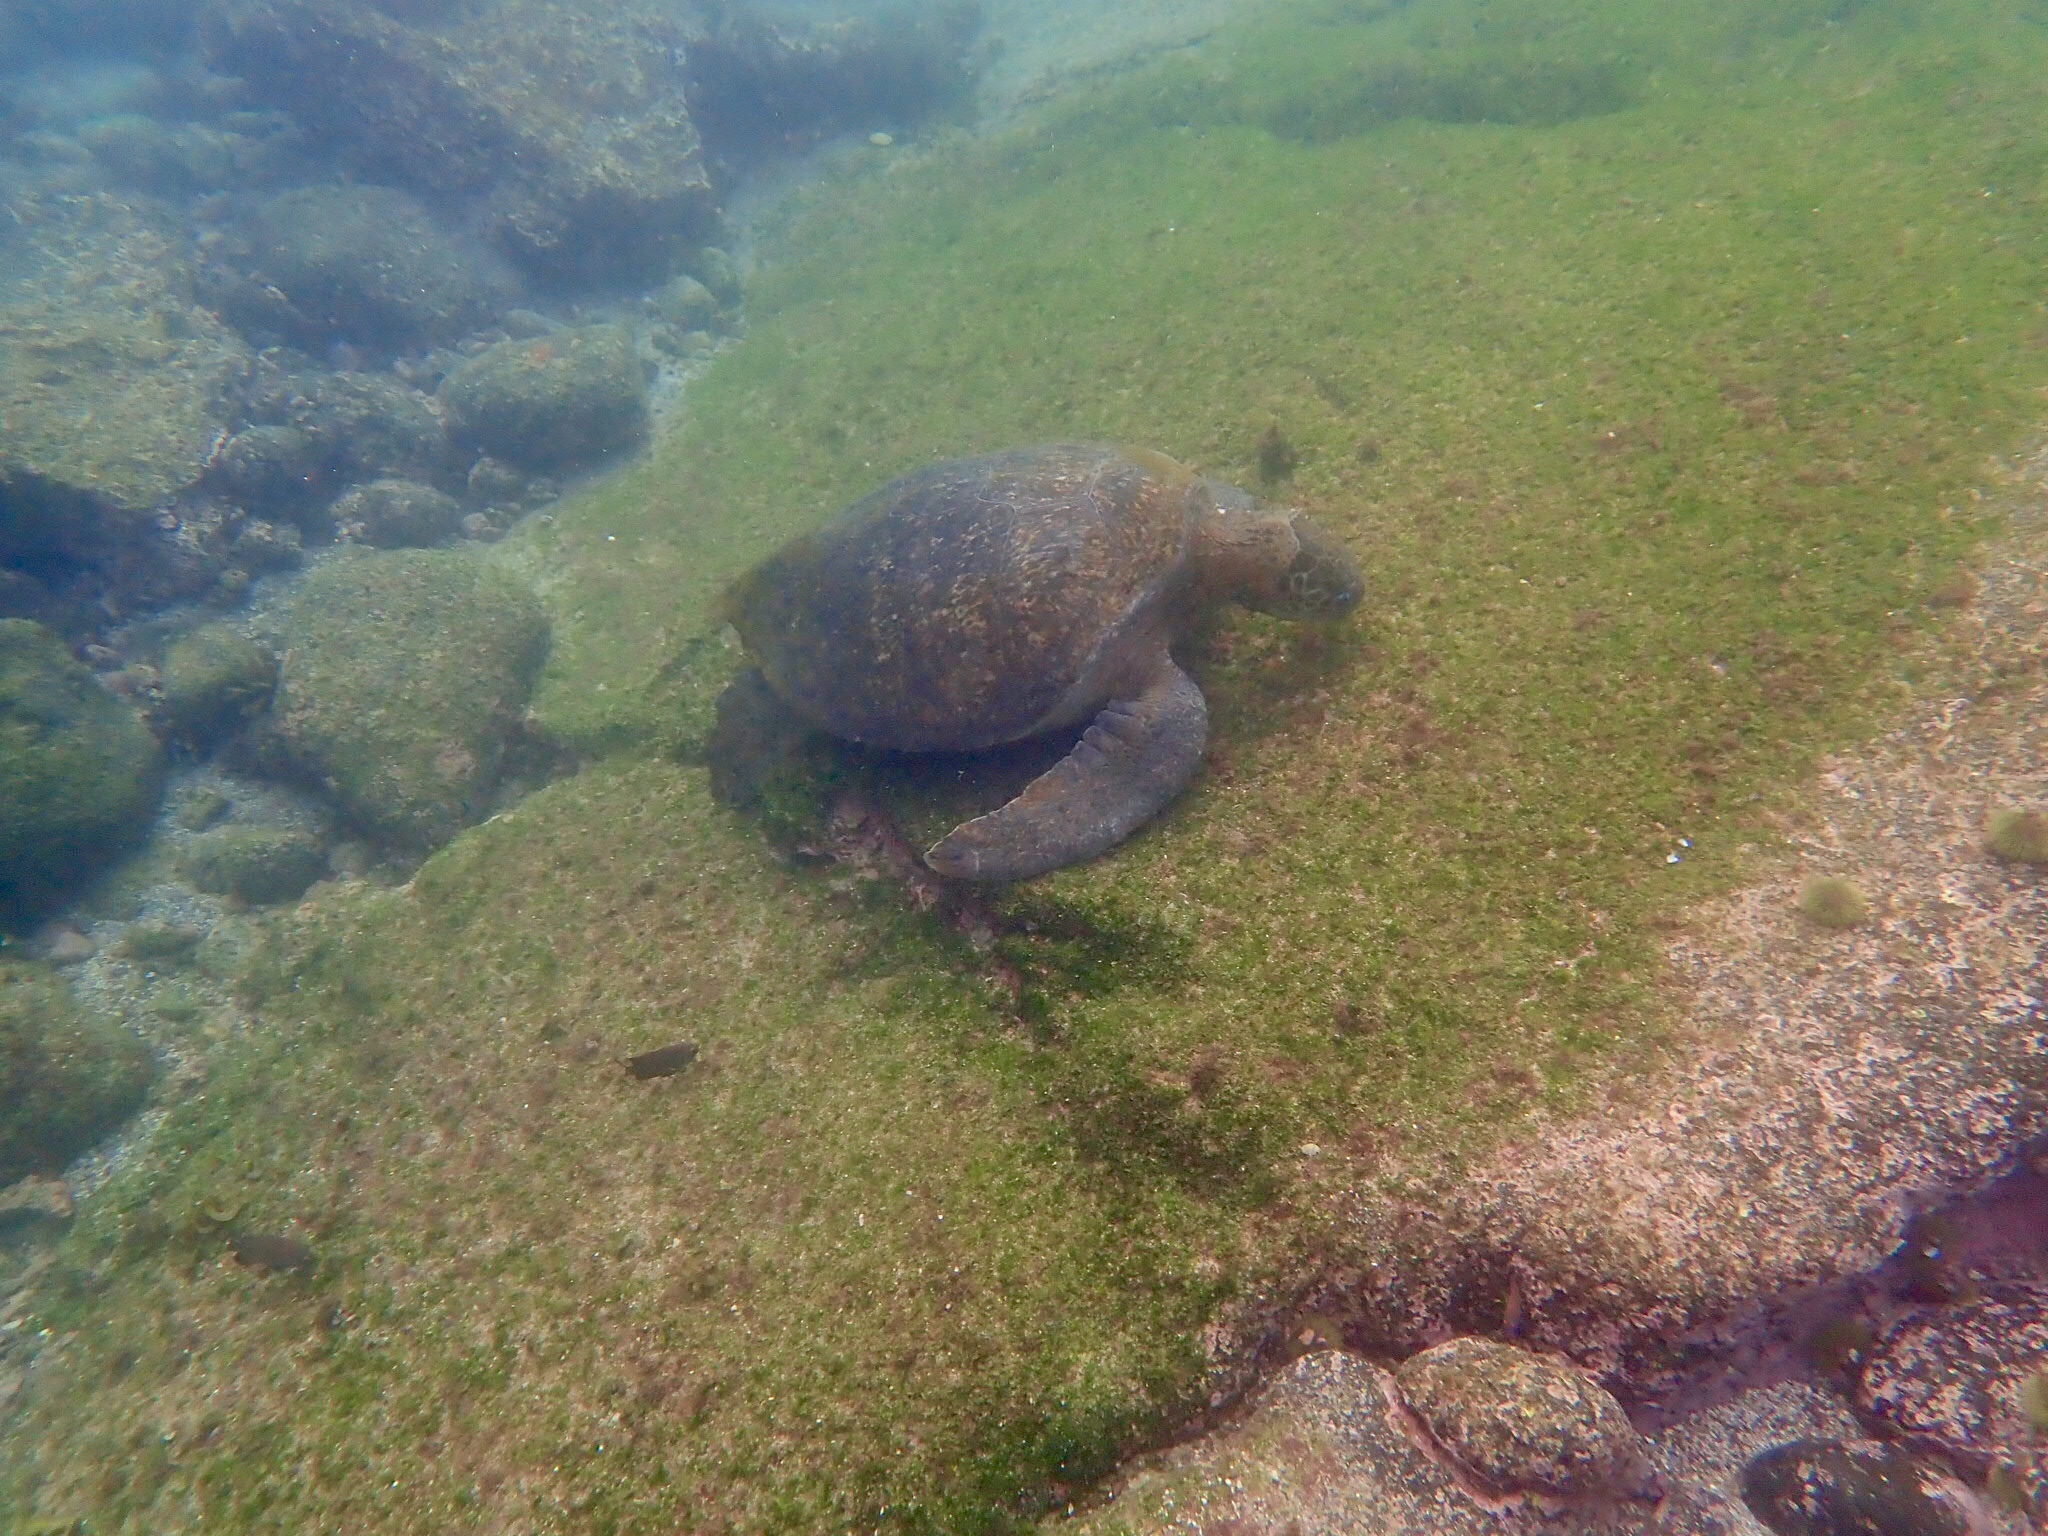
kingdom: Animalia
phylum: Chordata
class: Testudines
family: Cheloniidae
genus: Chelonia
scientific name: Chelonia mydas
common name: Green turtle
